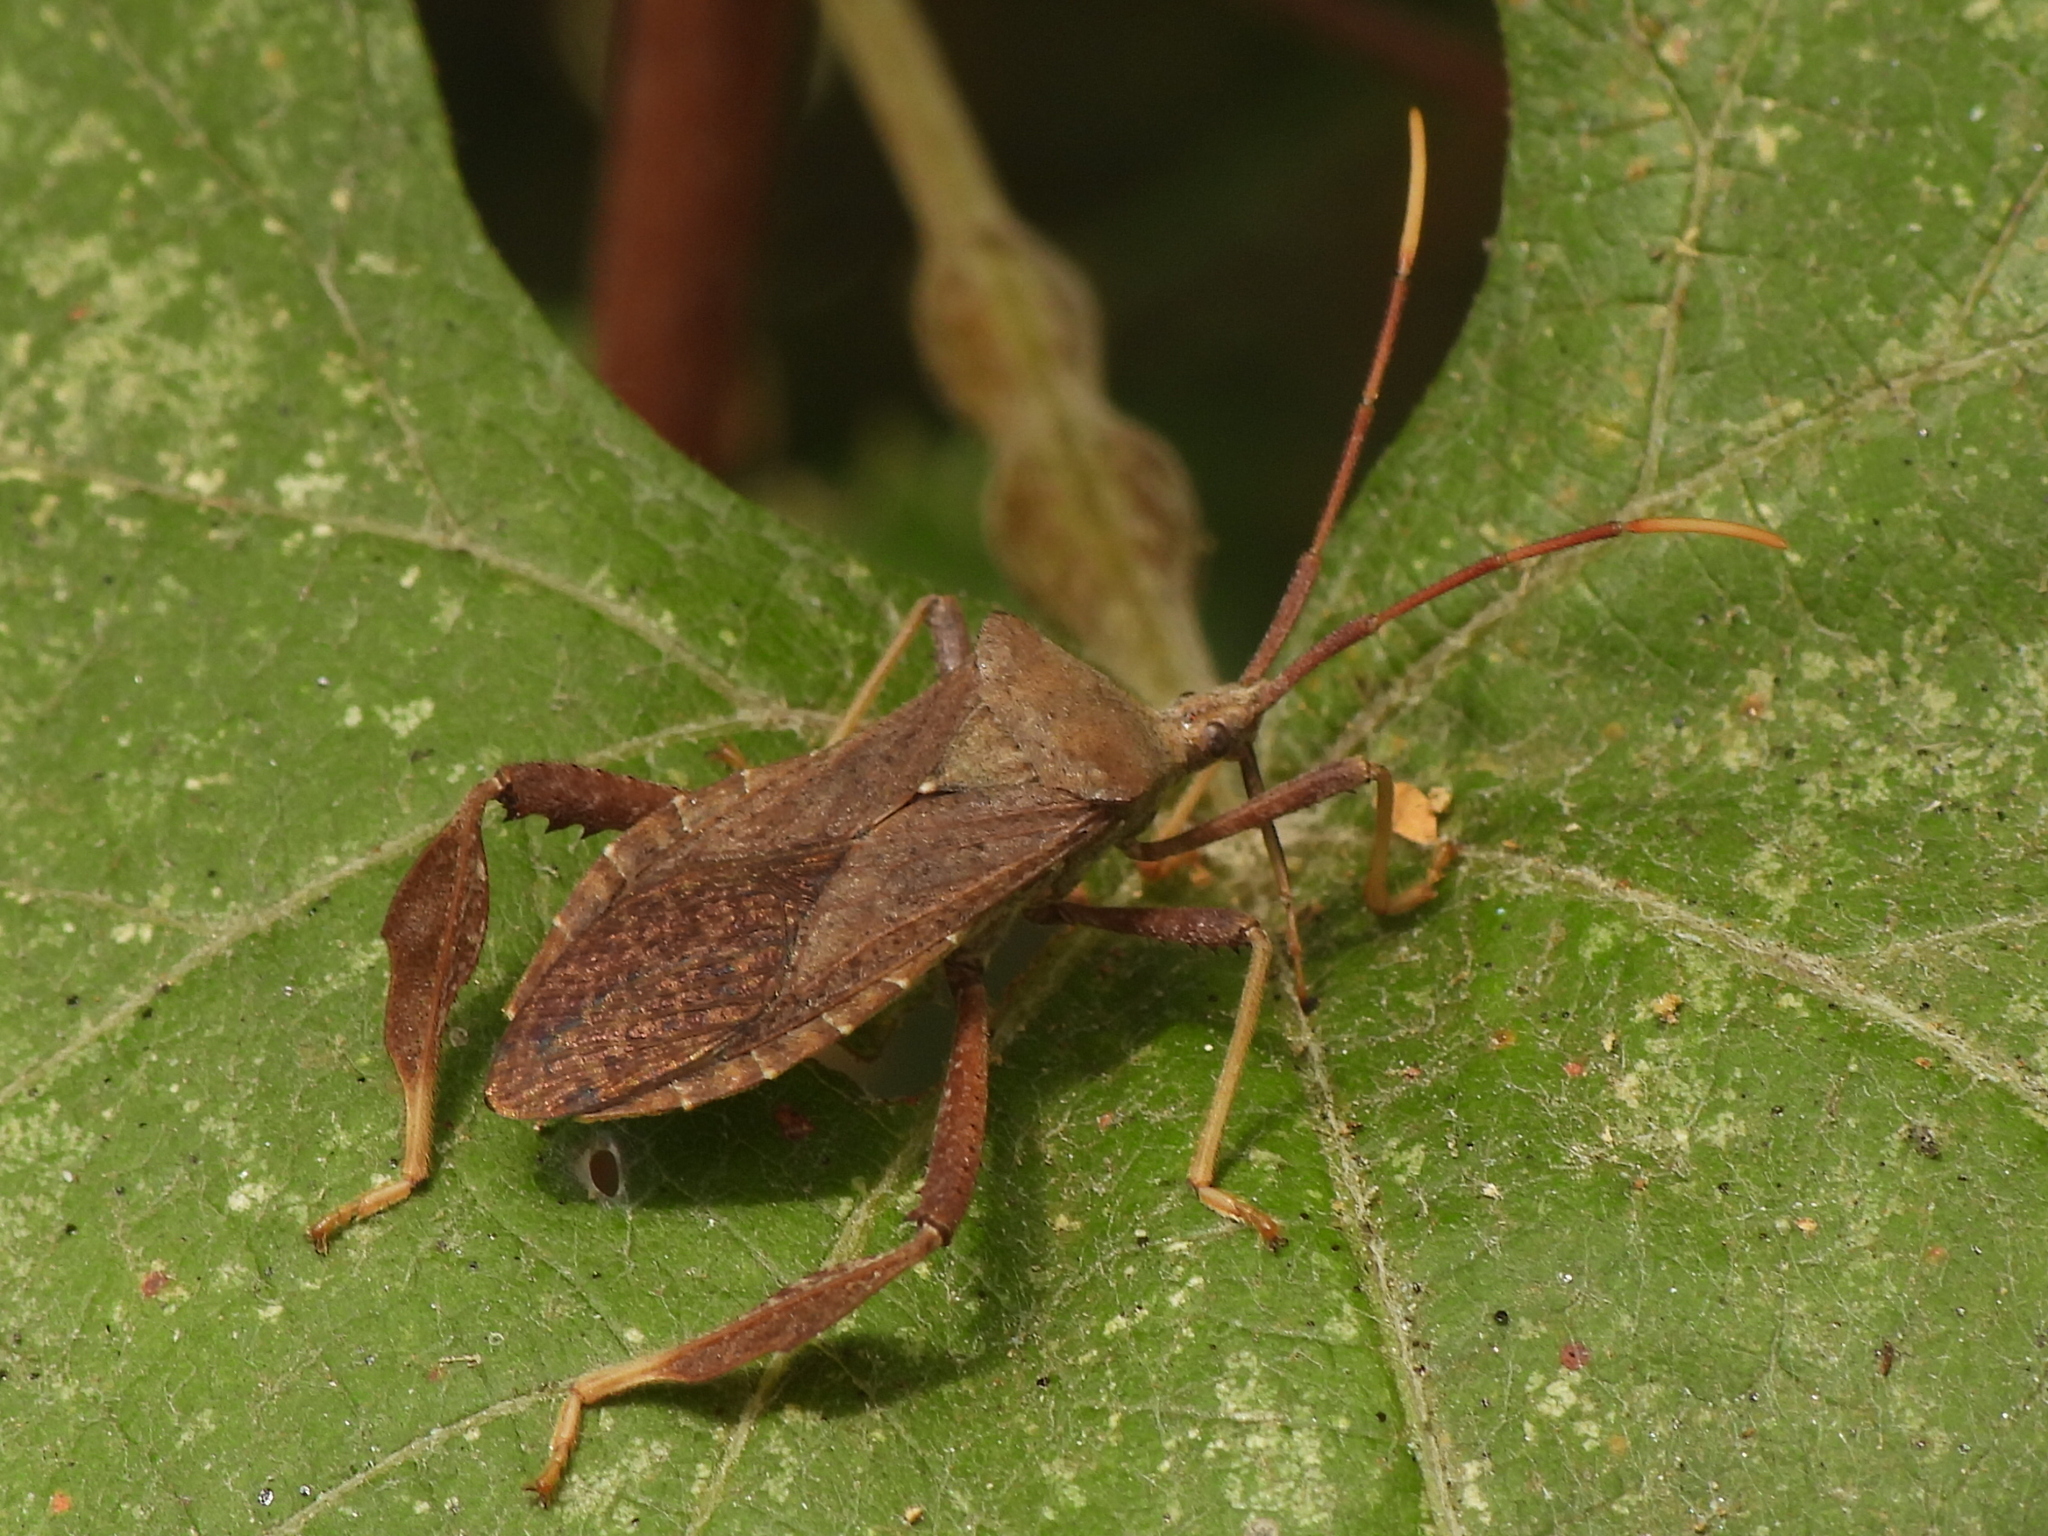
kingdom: Animalia
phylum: Arthropoda
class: Insecta
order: Hemiptera
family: Coreidae
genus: Acanthocephala
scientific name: Acanthocephala terminalis
